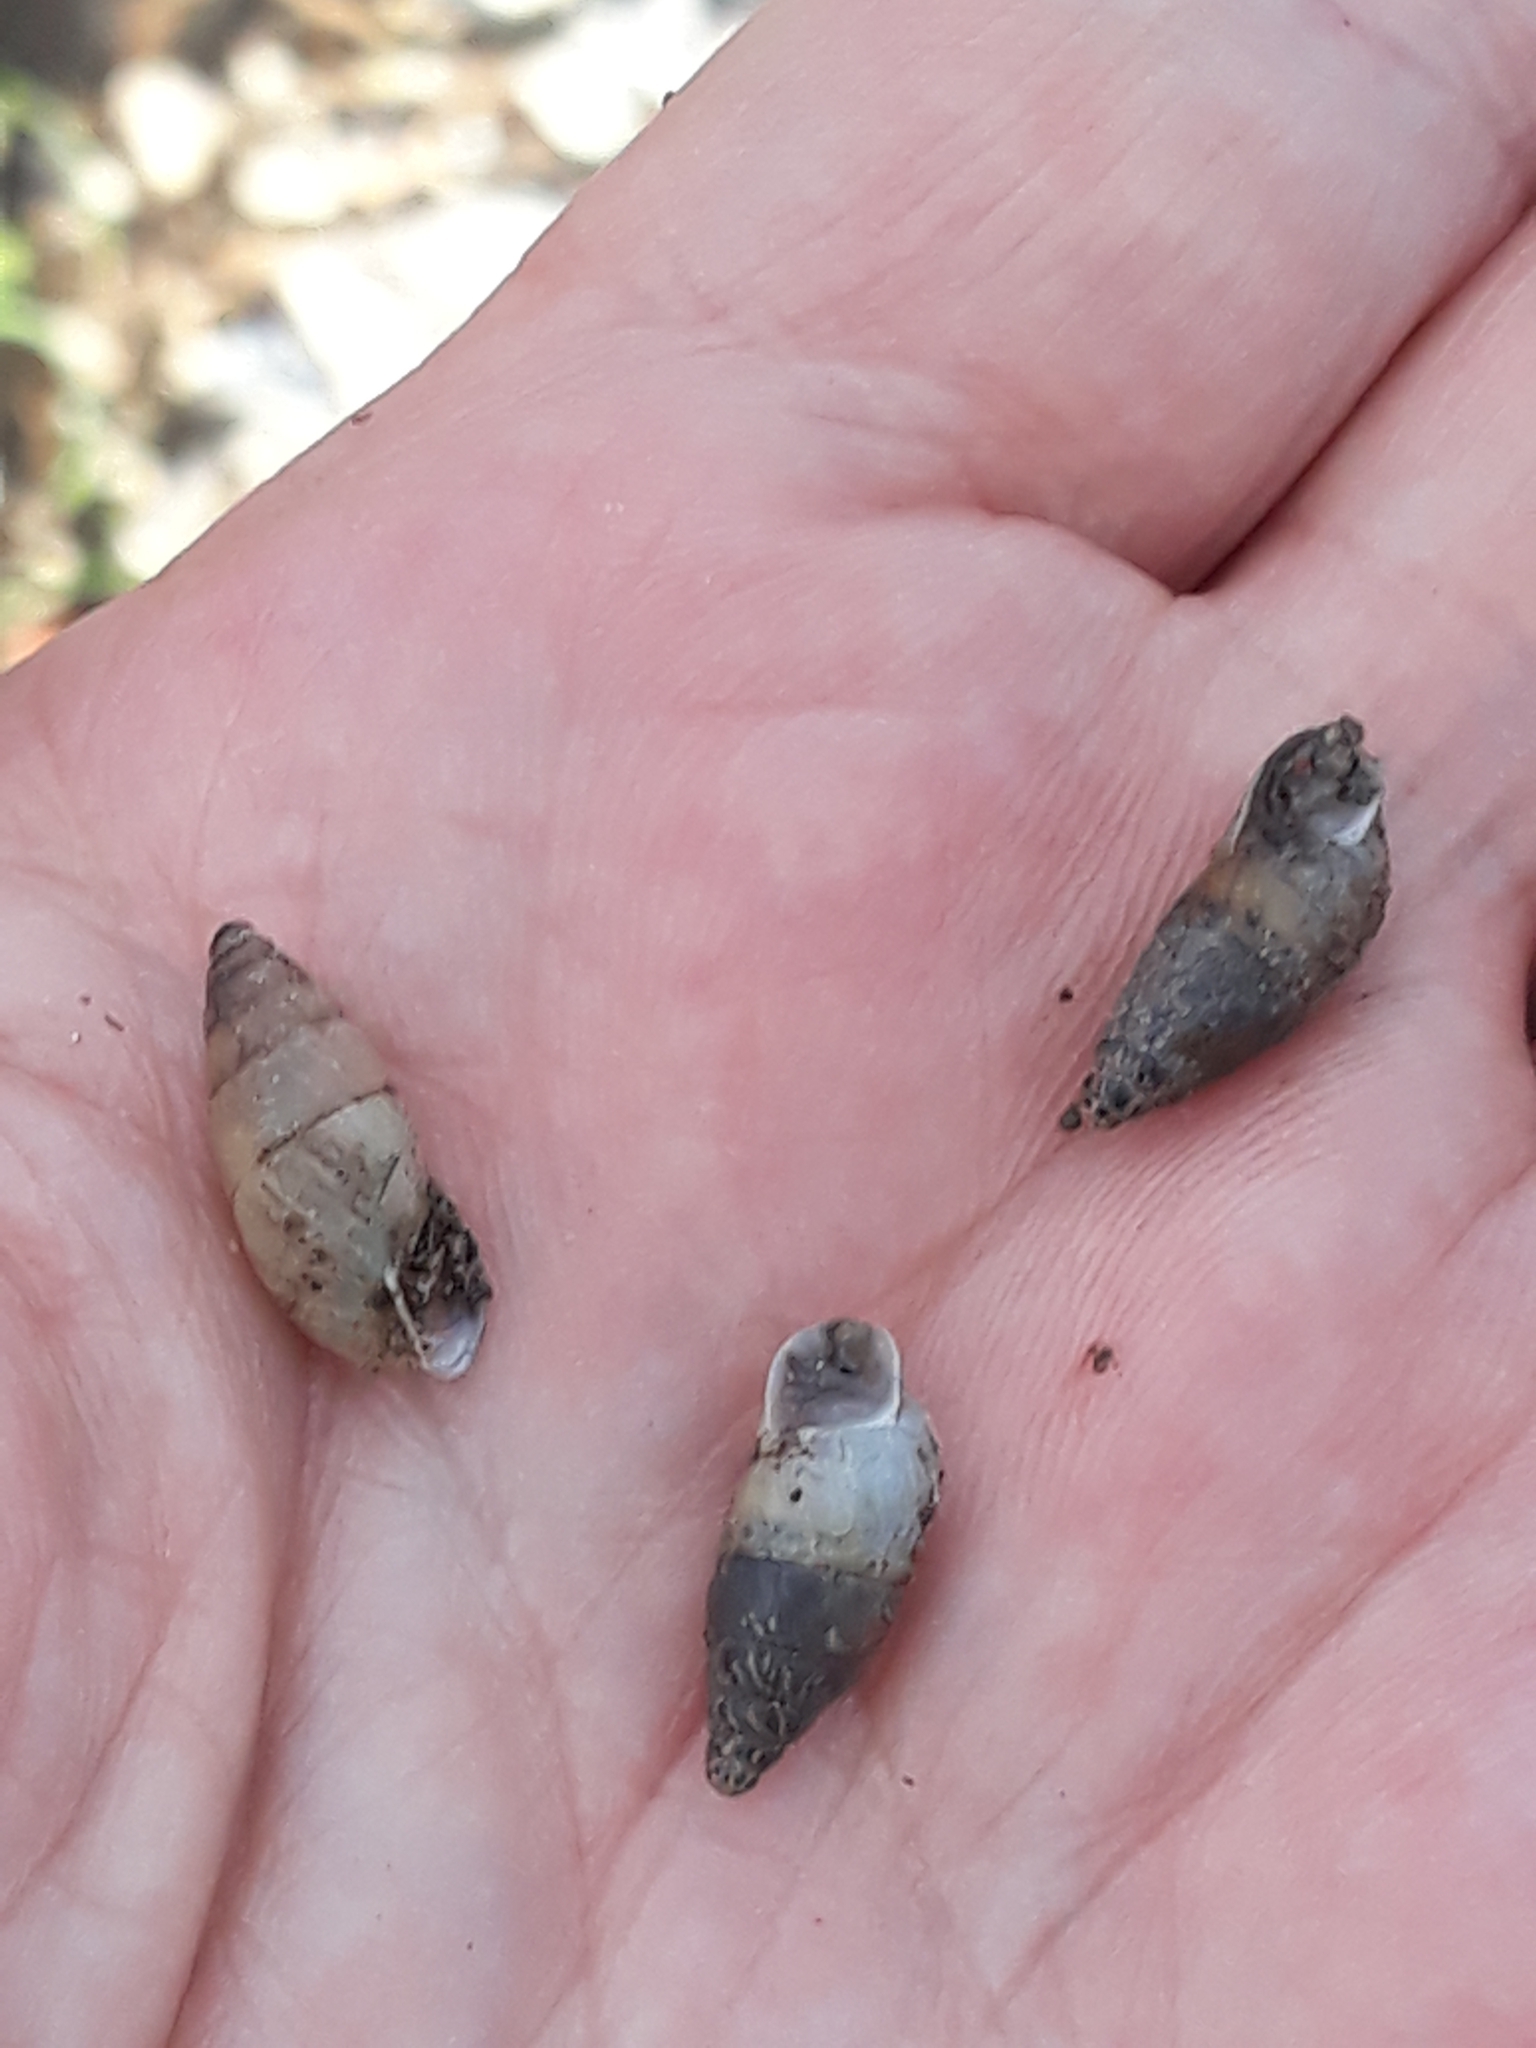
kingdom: Animalia
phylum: Mollusca
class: Gastropoda
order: Stylommatophora
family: Enidae
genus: Mastus
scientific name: Mastus pupa
